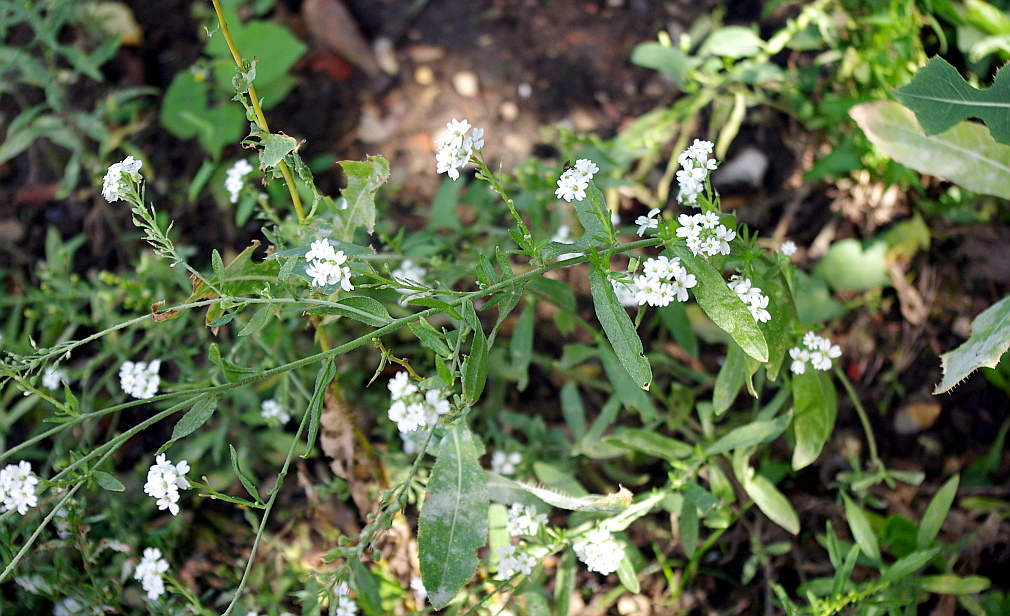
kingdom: Plantae
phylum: Tracheophyta
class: Magnoliopsida
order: Brassicales
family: Brassicaceae
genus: Berteroa
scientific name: Berteroa incana
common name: Hoary alison
